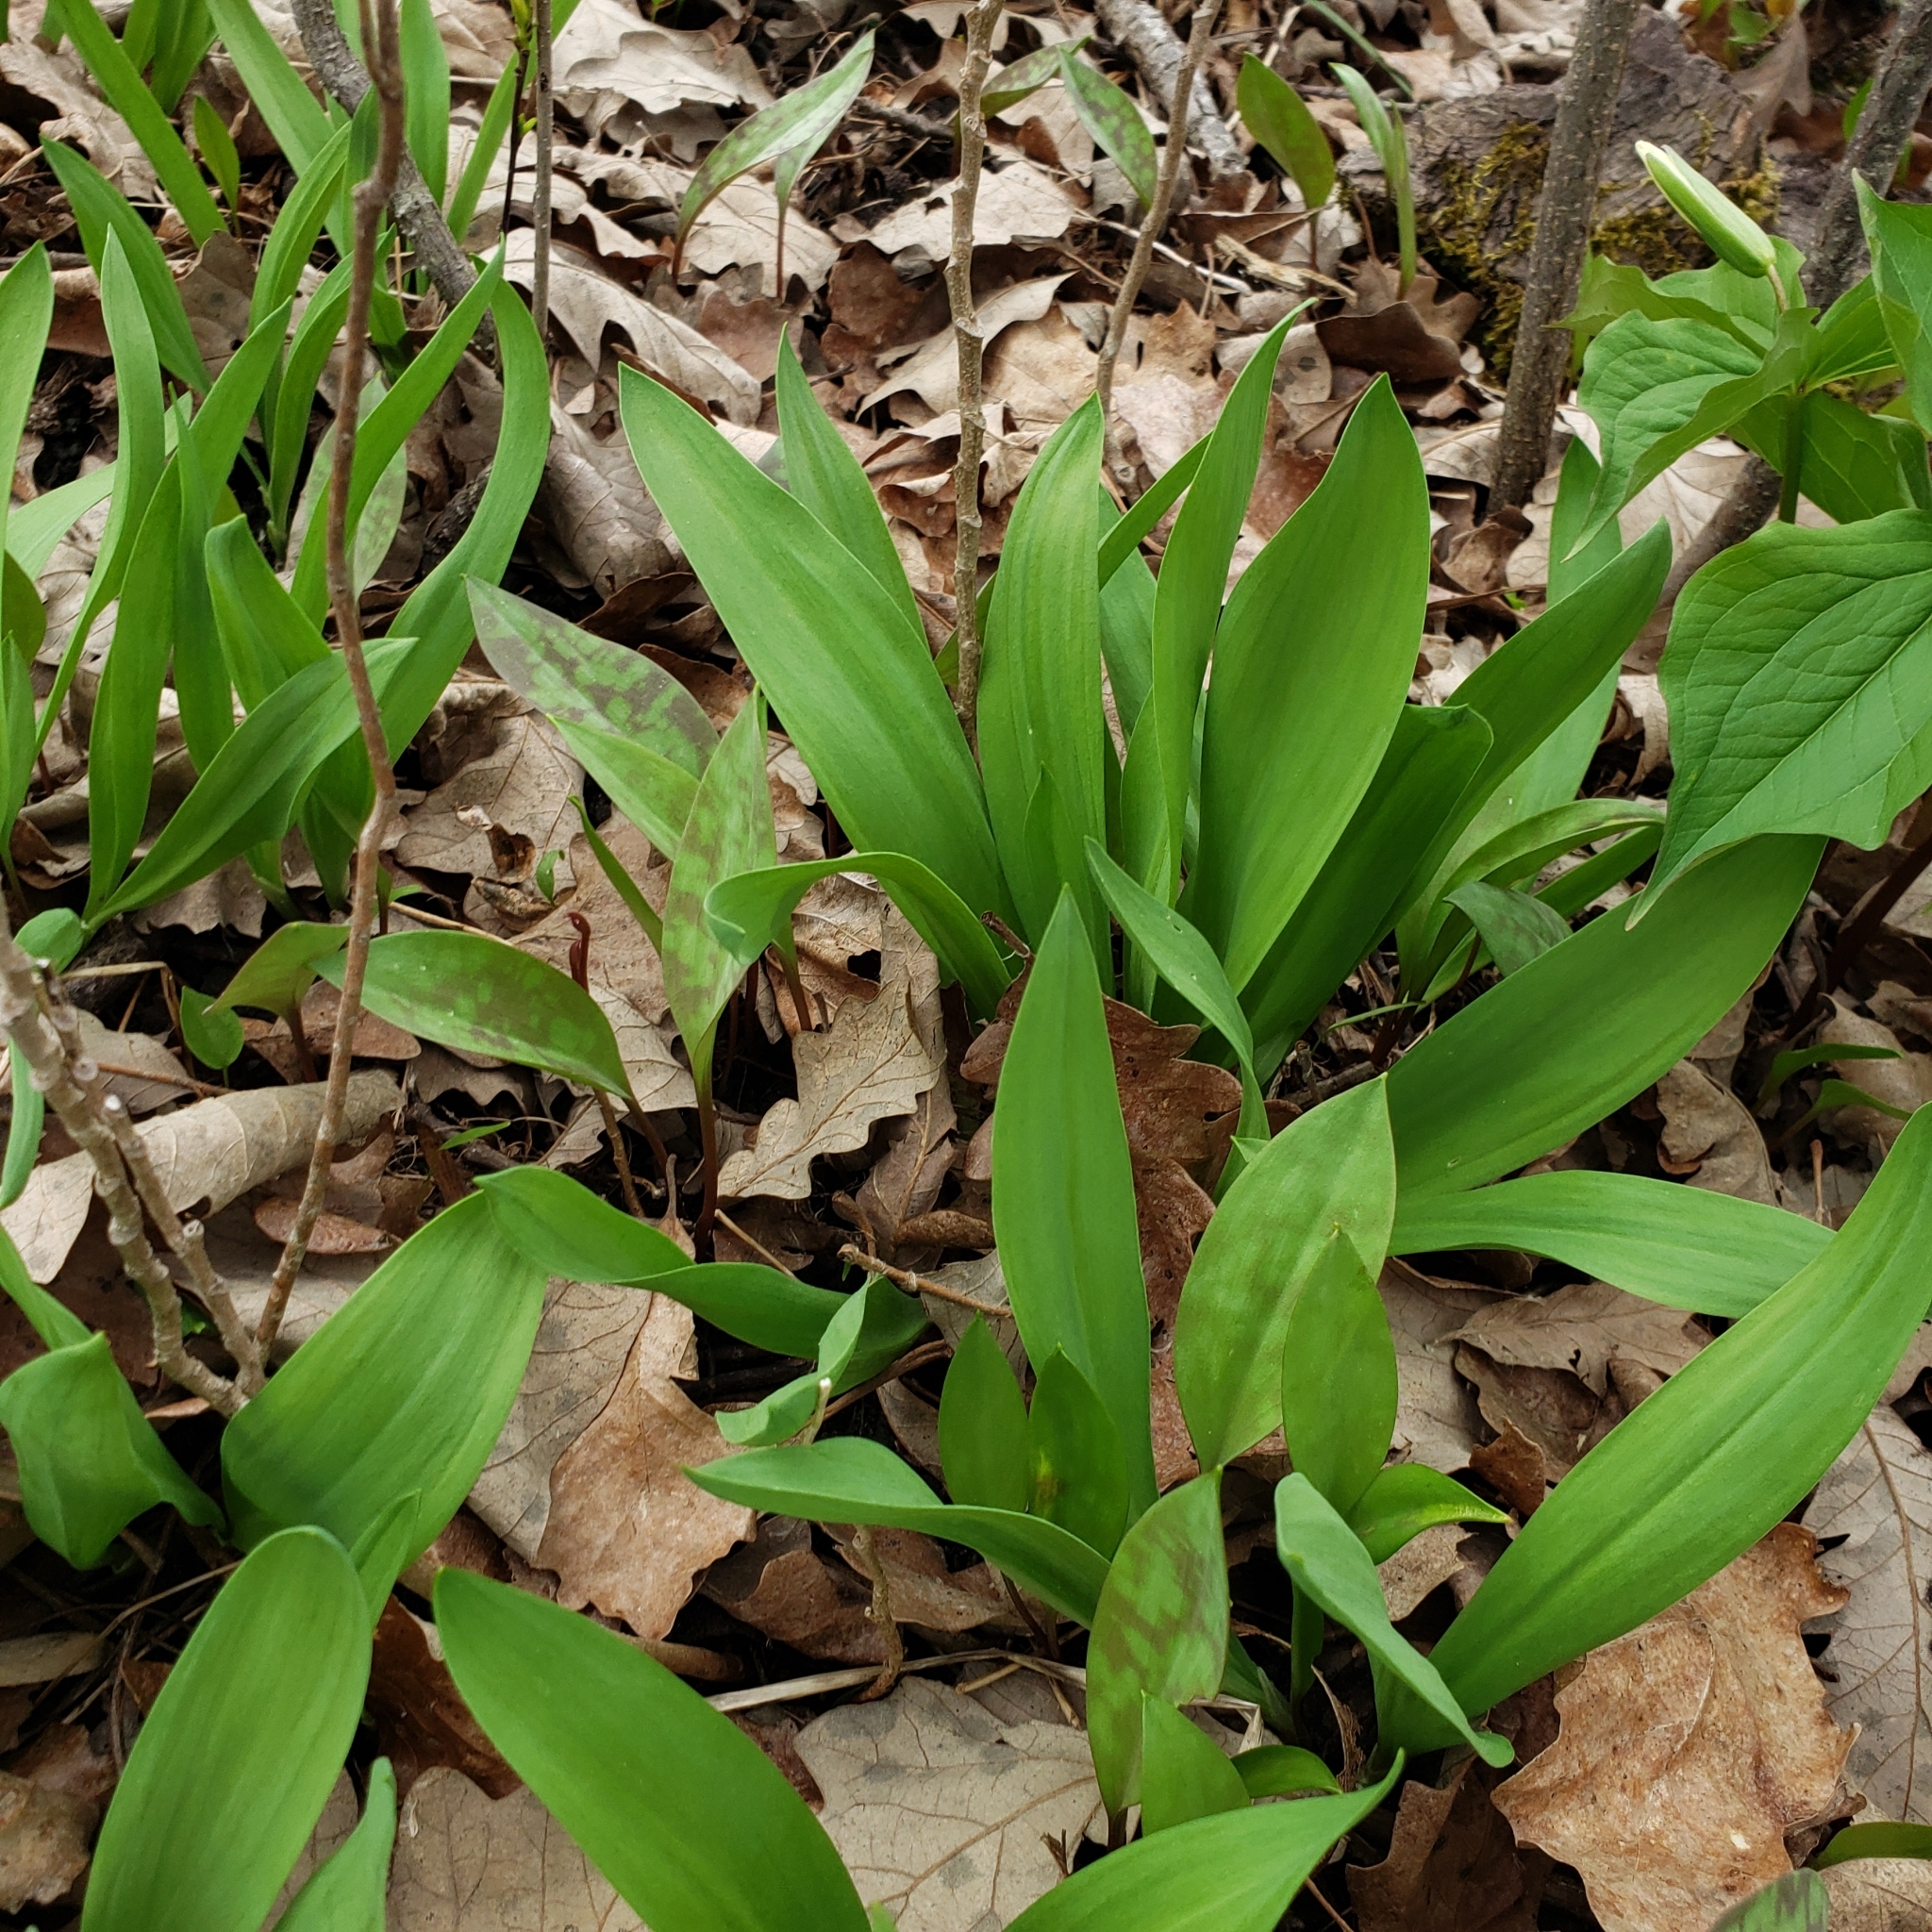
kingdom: Plantae
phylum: Tracheophyta
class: Liliopsida
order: Asparagales
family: Amaryllidaceae
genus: Allium
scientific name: Allium tricoccum
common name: Ramp
